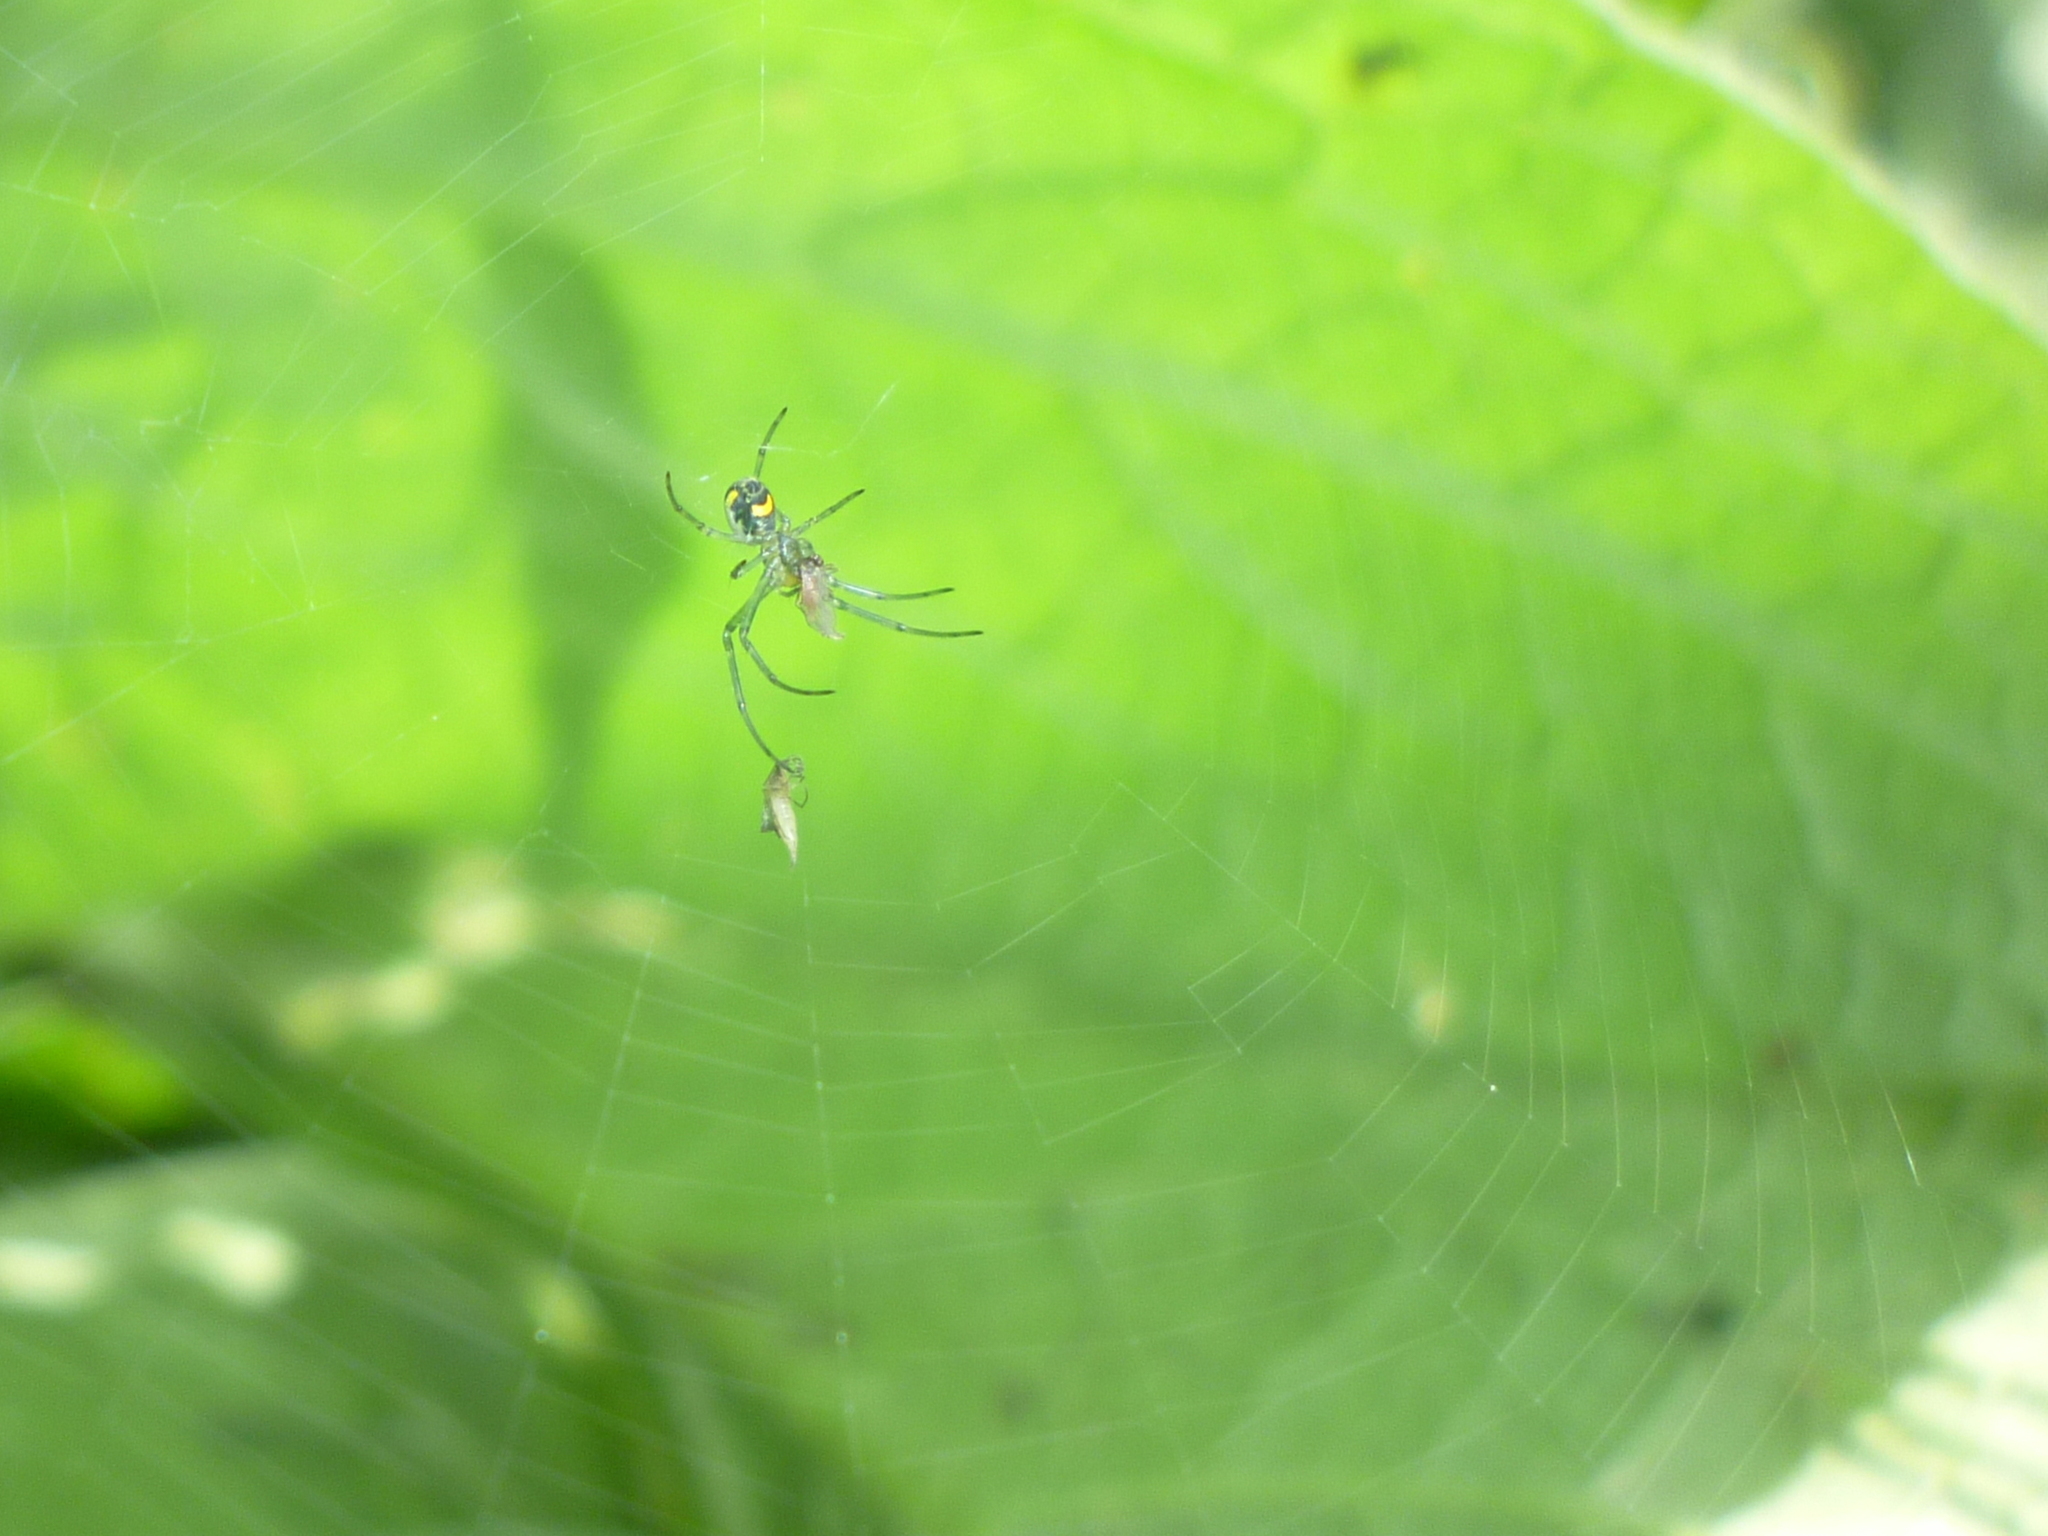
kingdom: Animalia
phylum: Arthropoda
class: Arachnida
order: Araneae
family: Tetragnathidae
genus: Leucauge
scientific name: Leucauge venusta
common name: Longjawed orb weavers
